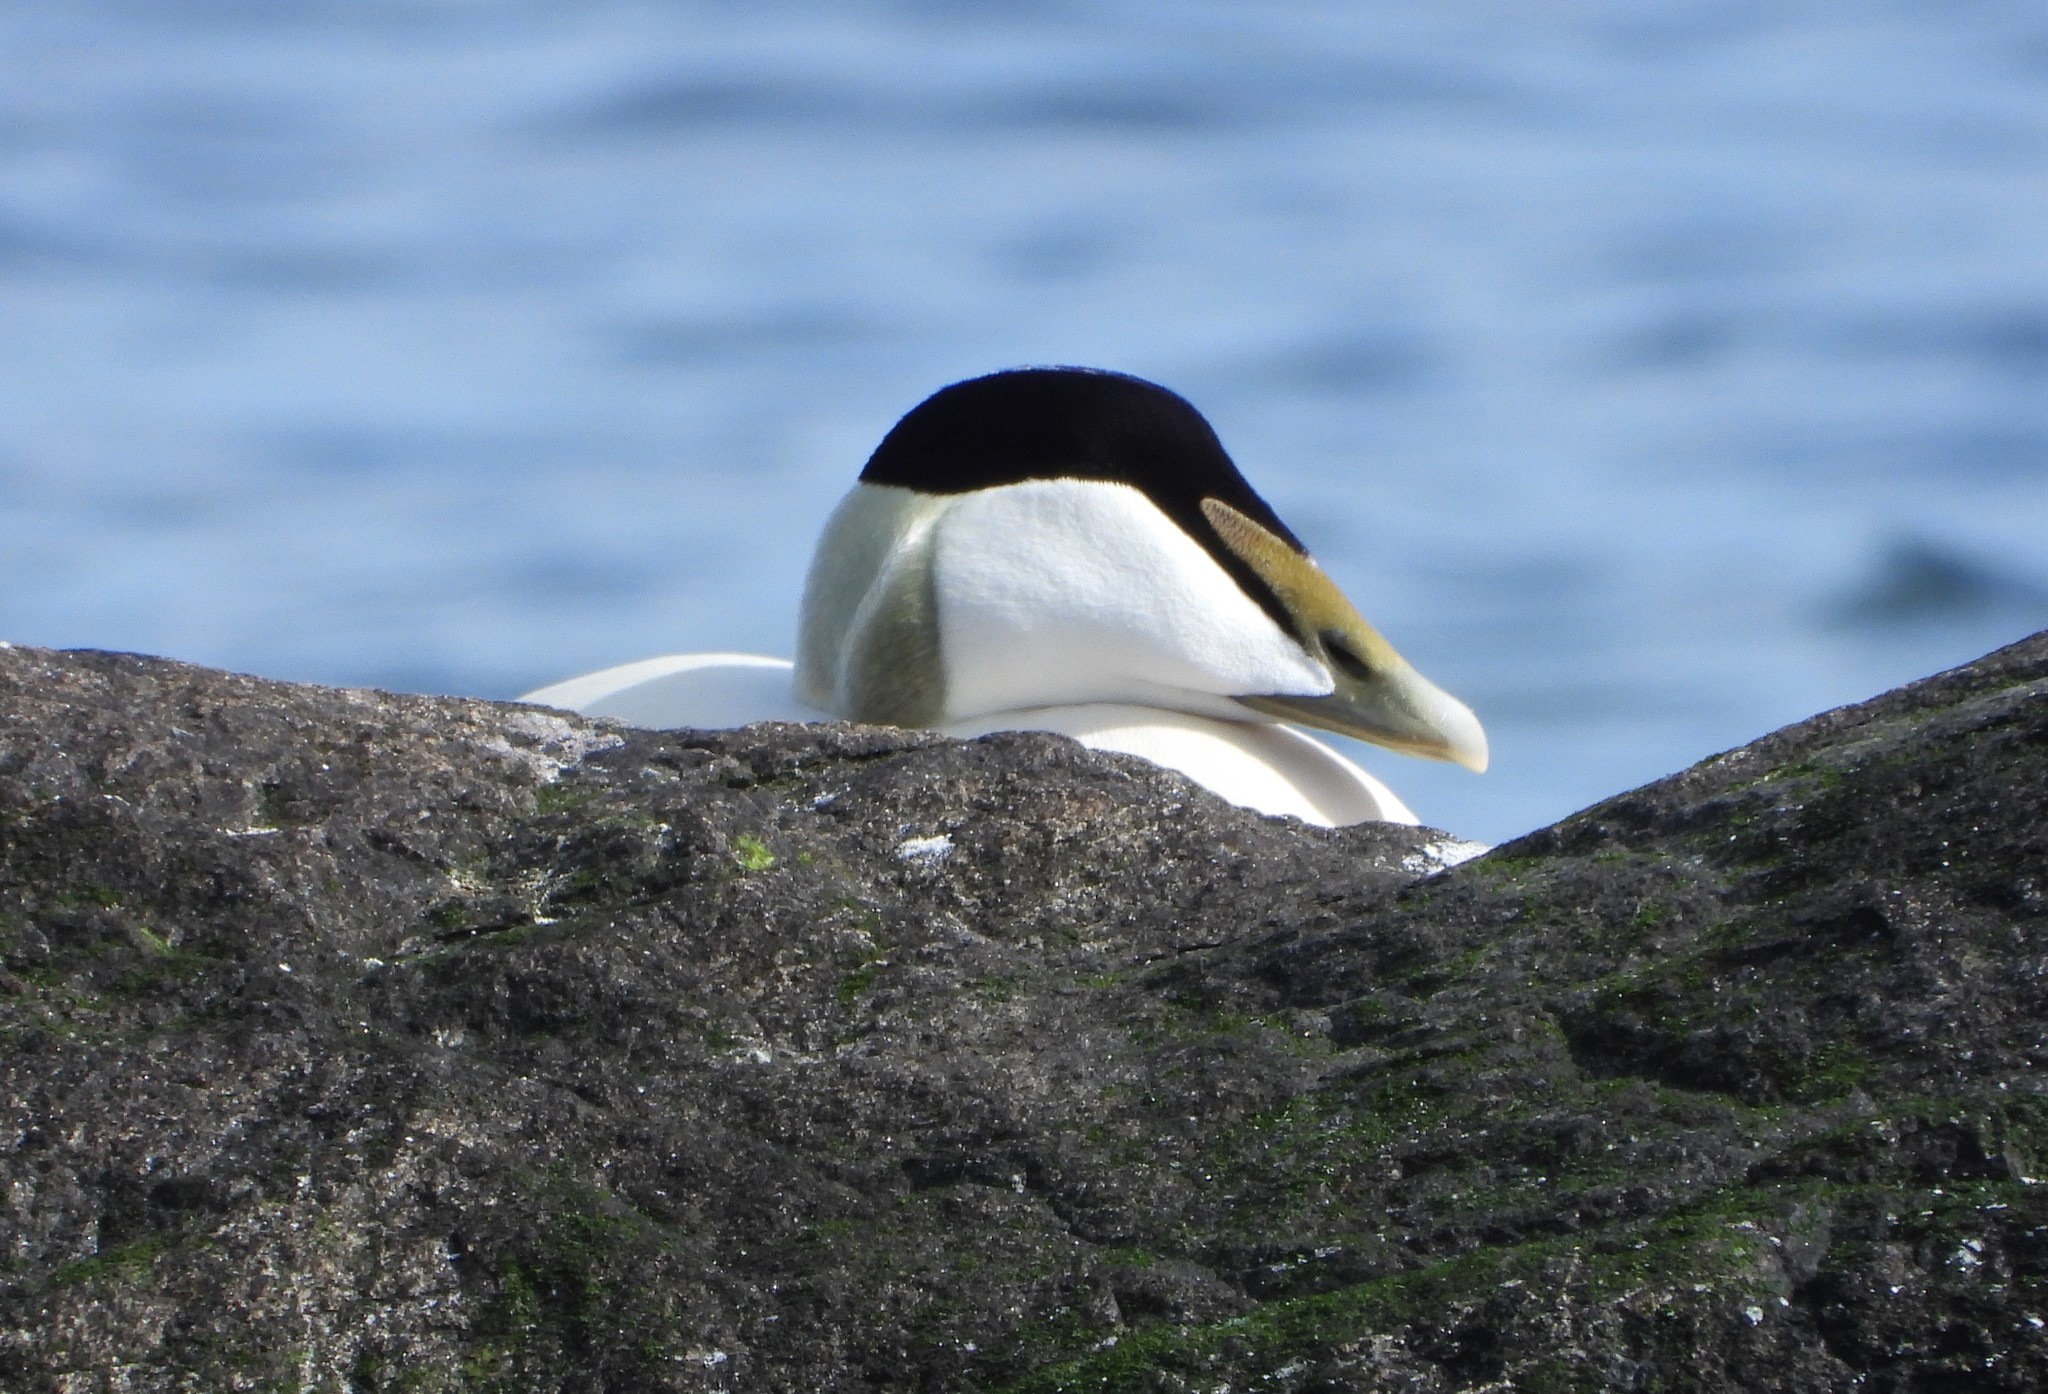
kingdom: Animalia
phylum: Chordata
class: Aves
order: Anseriformes
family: Anatidae
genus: Somateria
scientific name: Somateria mollissima
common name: Common eider
